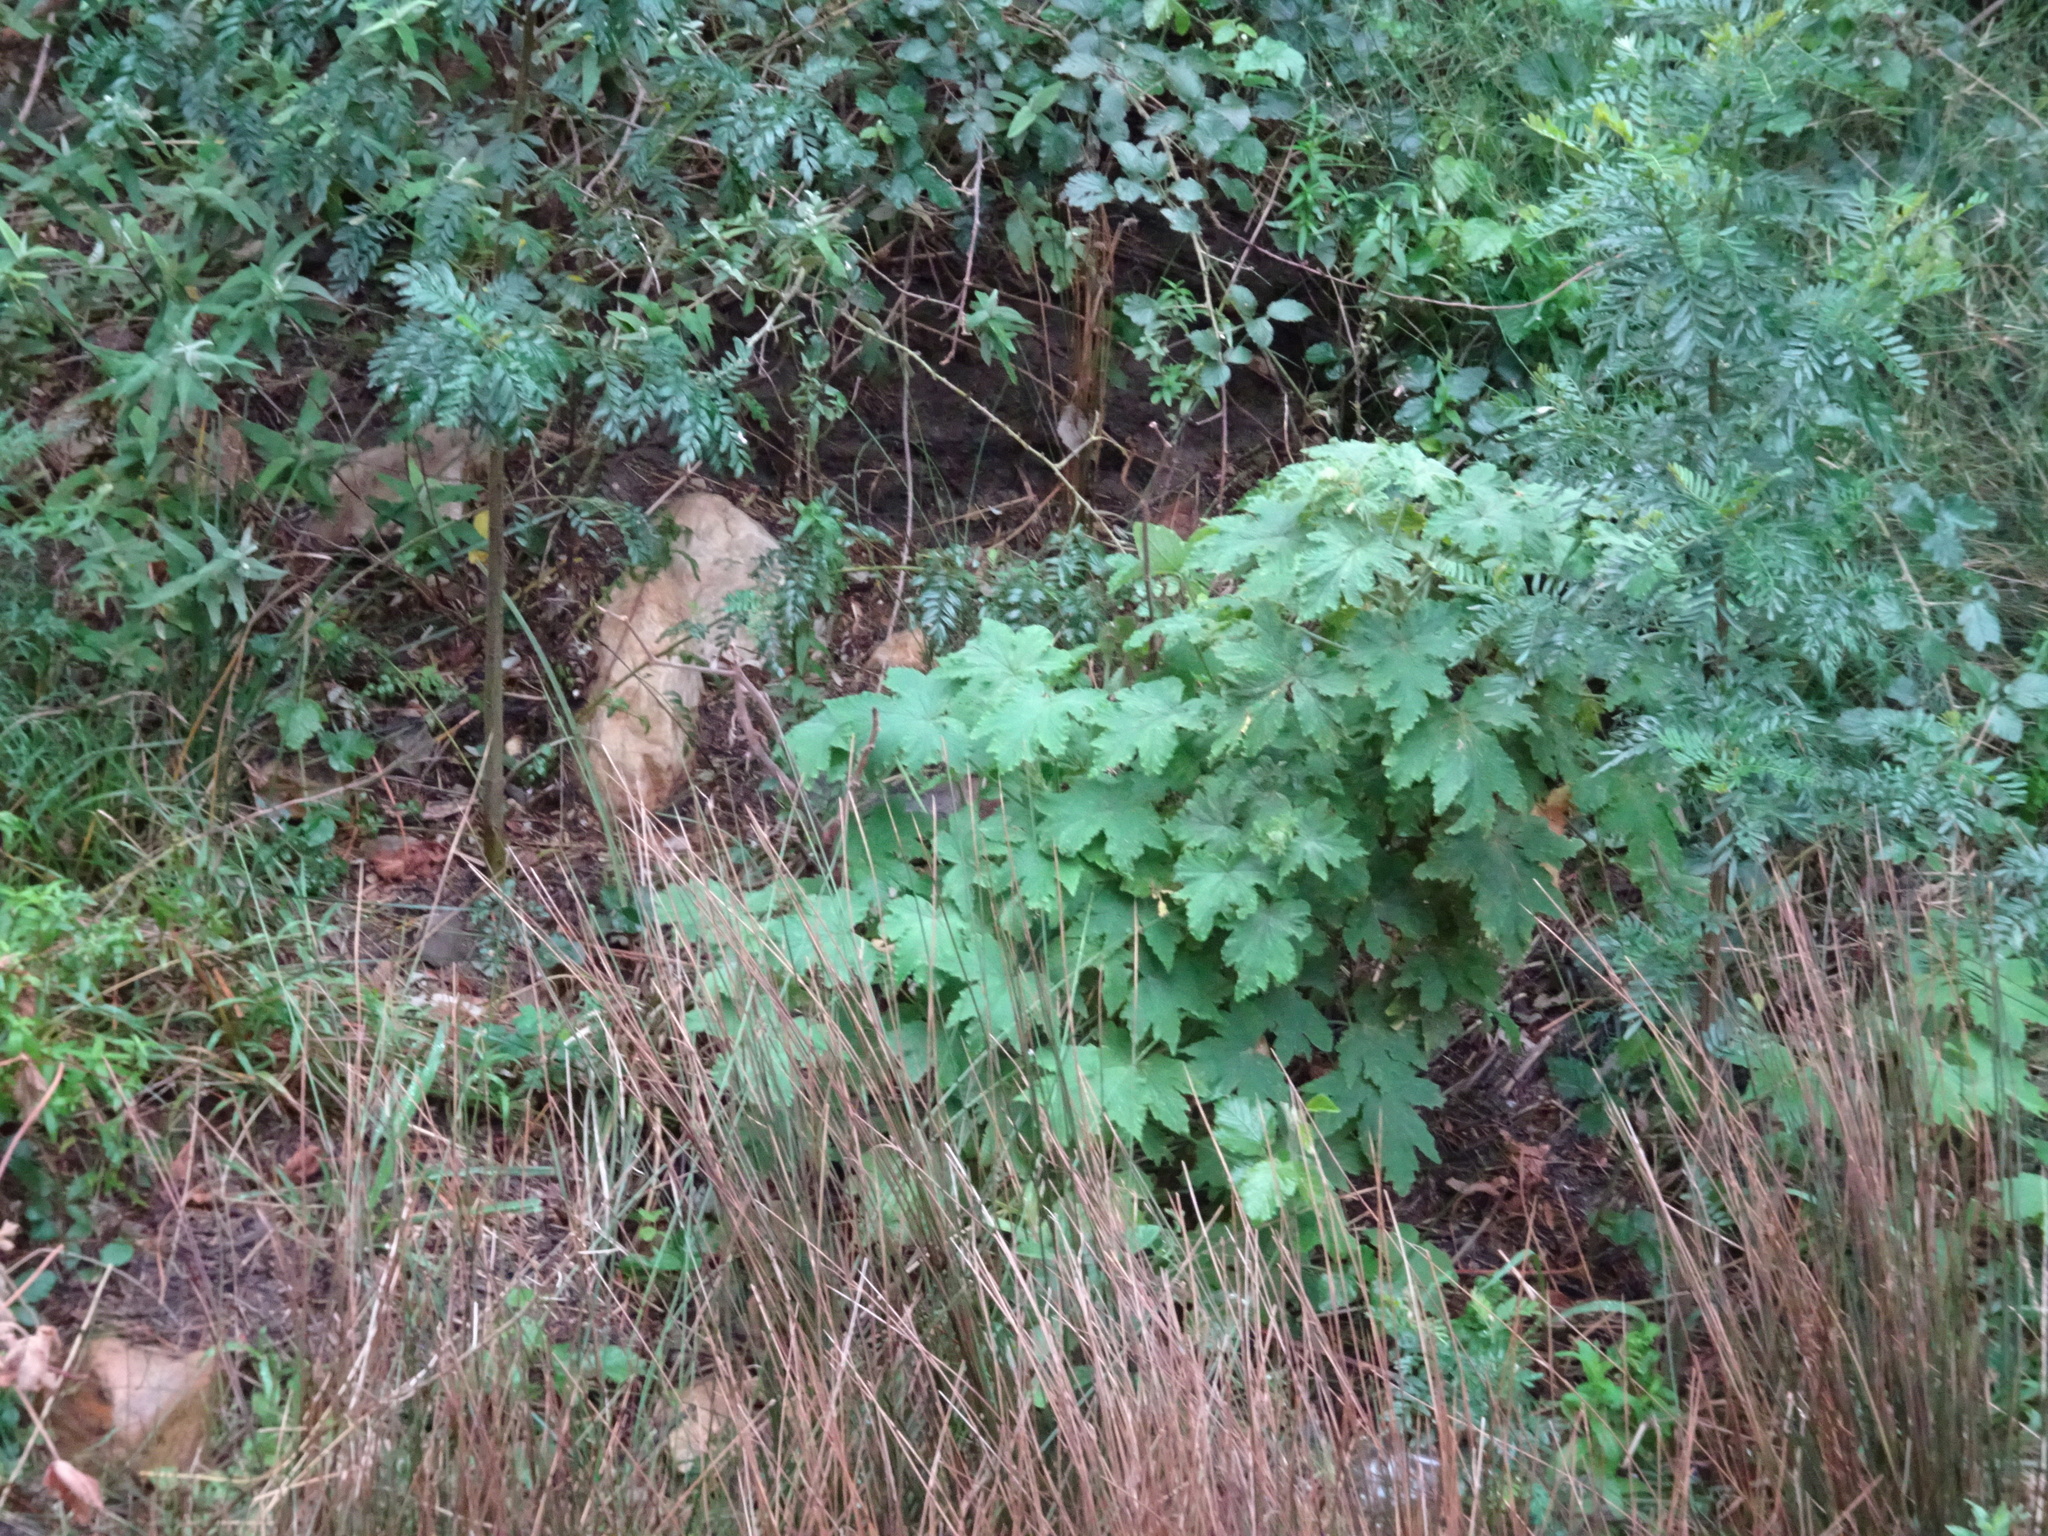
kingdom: Plantae
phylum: Tracheophyta
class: Magnoliopsida
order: Geraniales
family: Geraniaceae
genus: Pelargonium
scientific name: Pelargonium hispidum
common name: Hispid pelargonium
